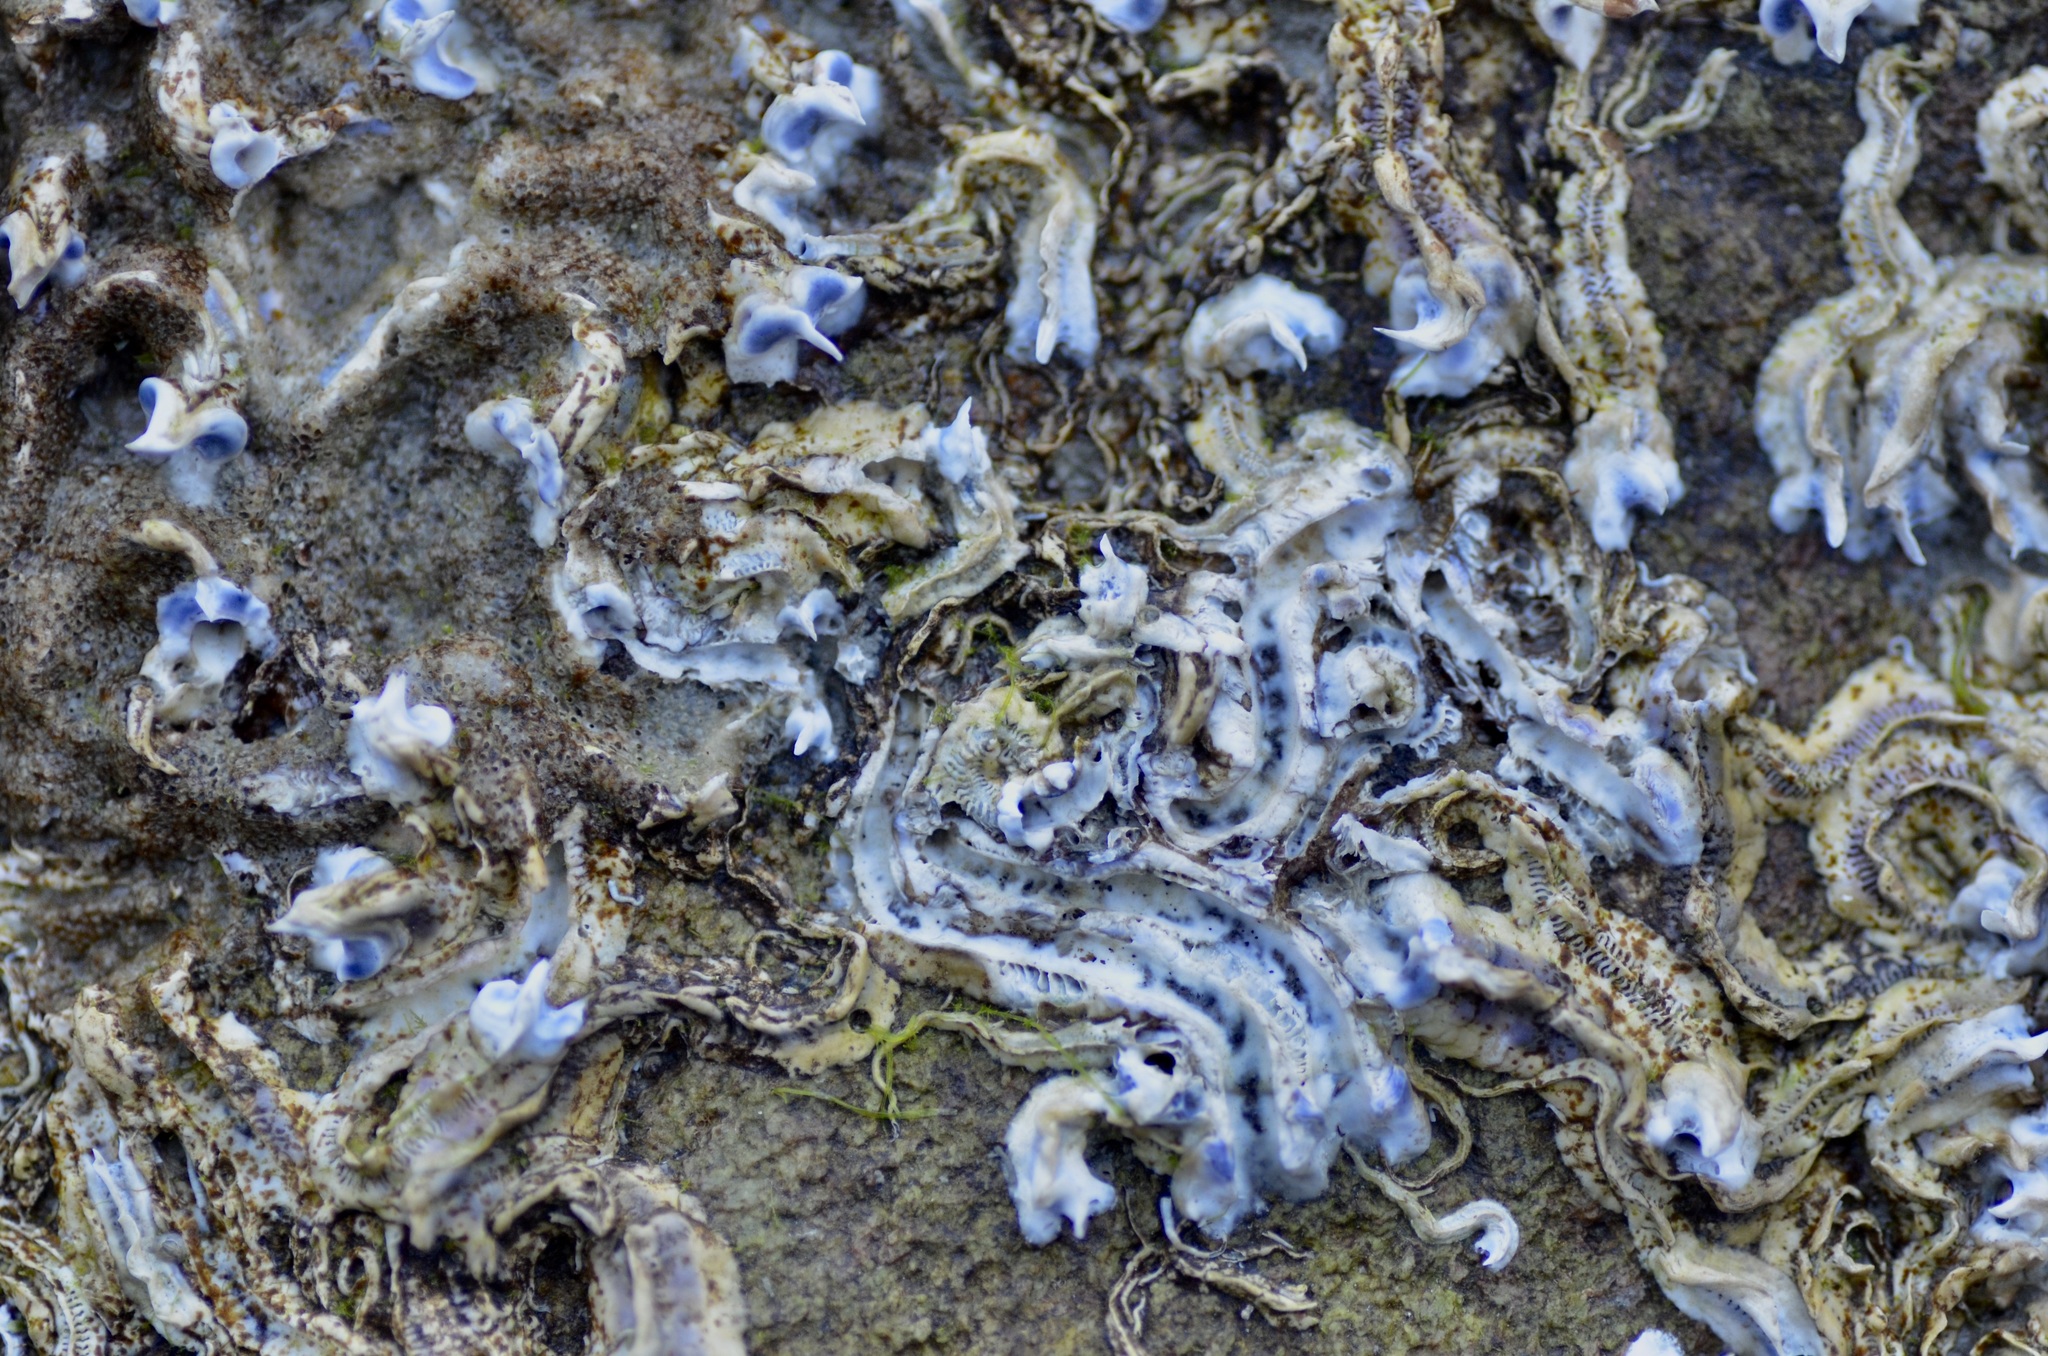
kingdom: Animalia
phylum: Annelida
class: Polychaeta
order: Sabellida
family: Serpulidae
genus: Spirobranchus
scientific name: Spirobranchus cariniferus
